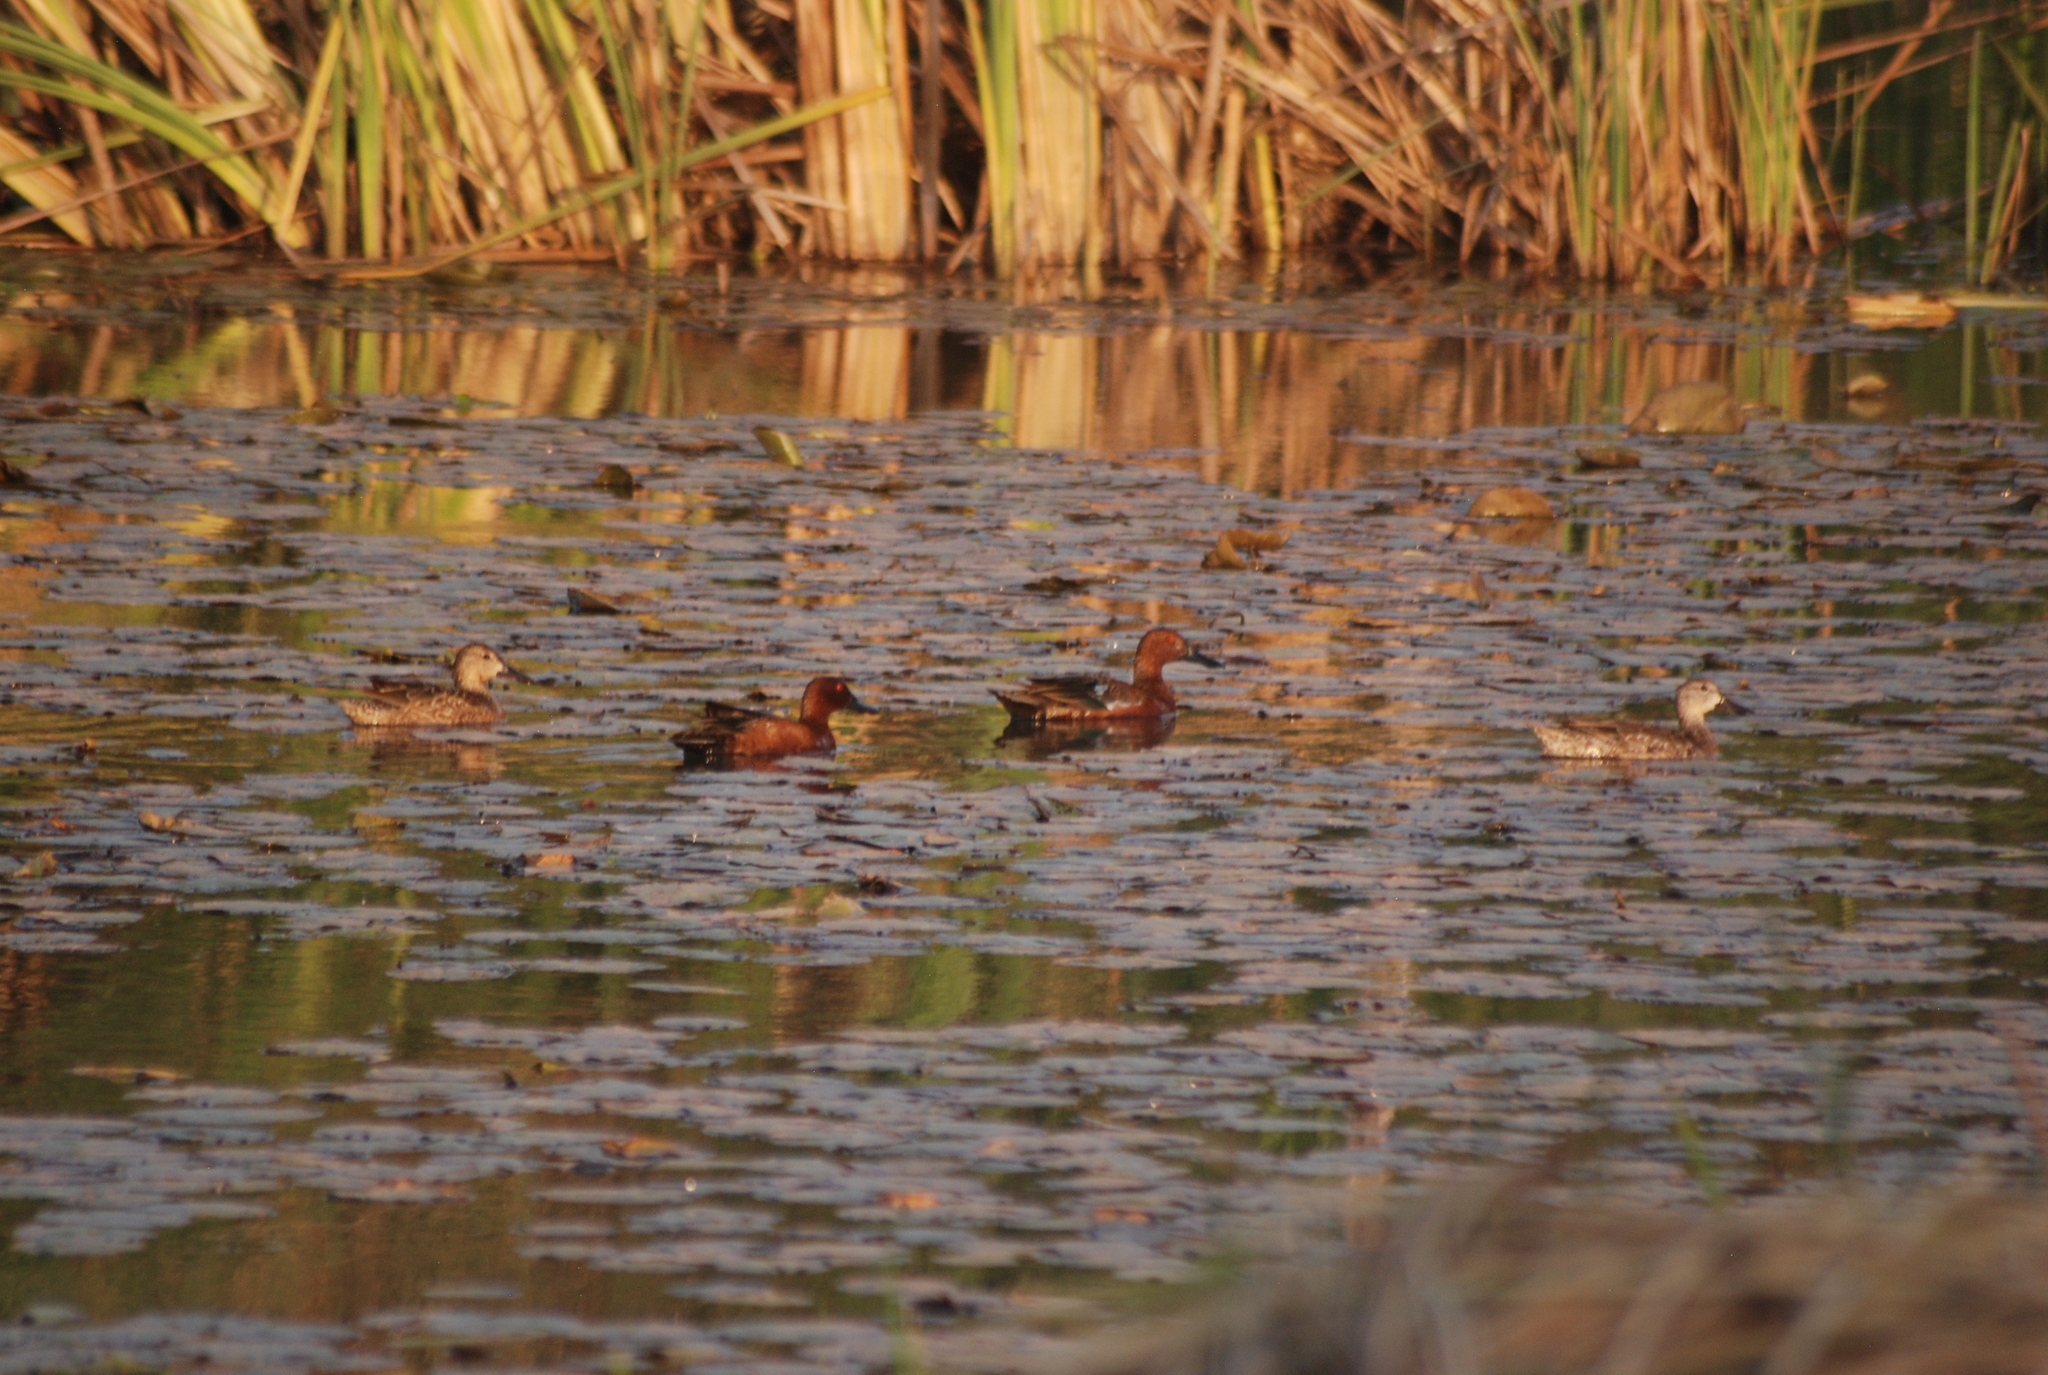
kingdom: Animalia
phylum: Chordata
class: Aves
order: Anseriformes
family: Anatidae
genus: Spatula
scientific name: Spatula cyanoptera
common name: Cinnamon teal
